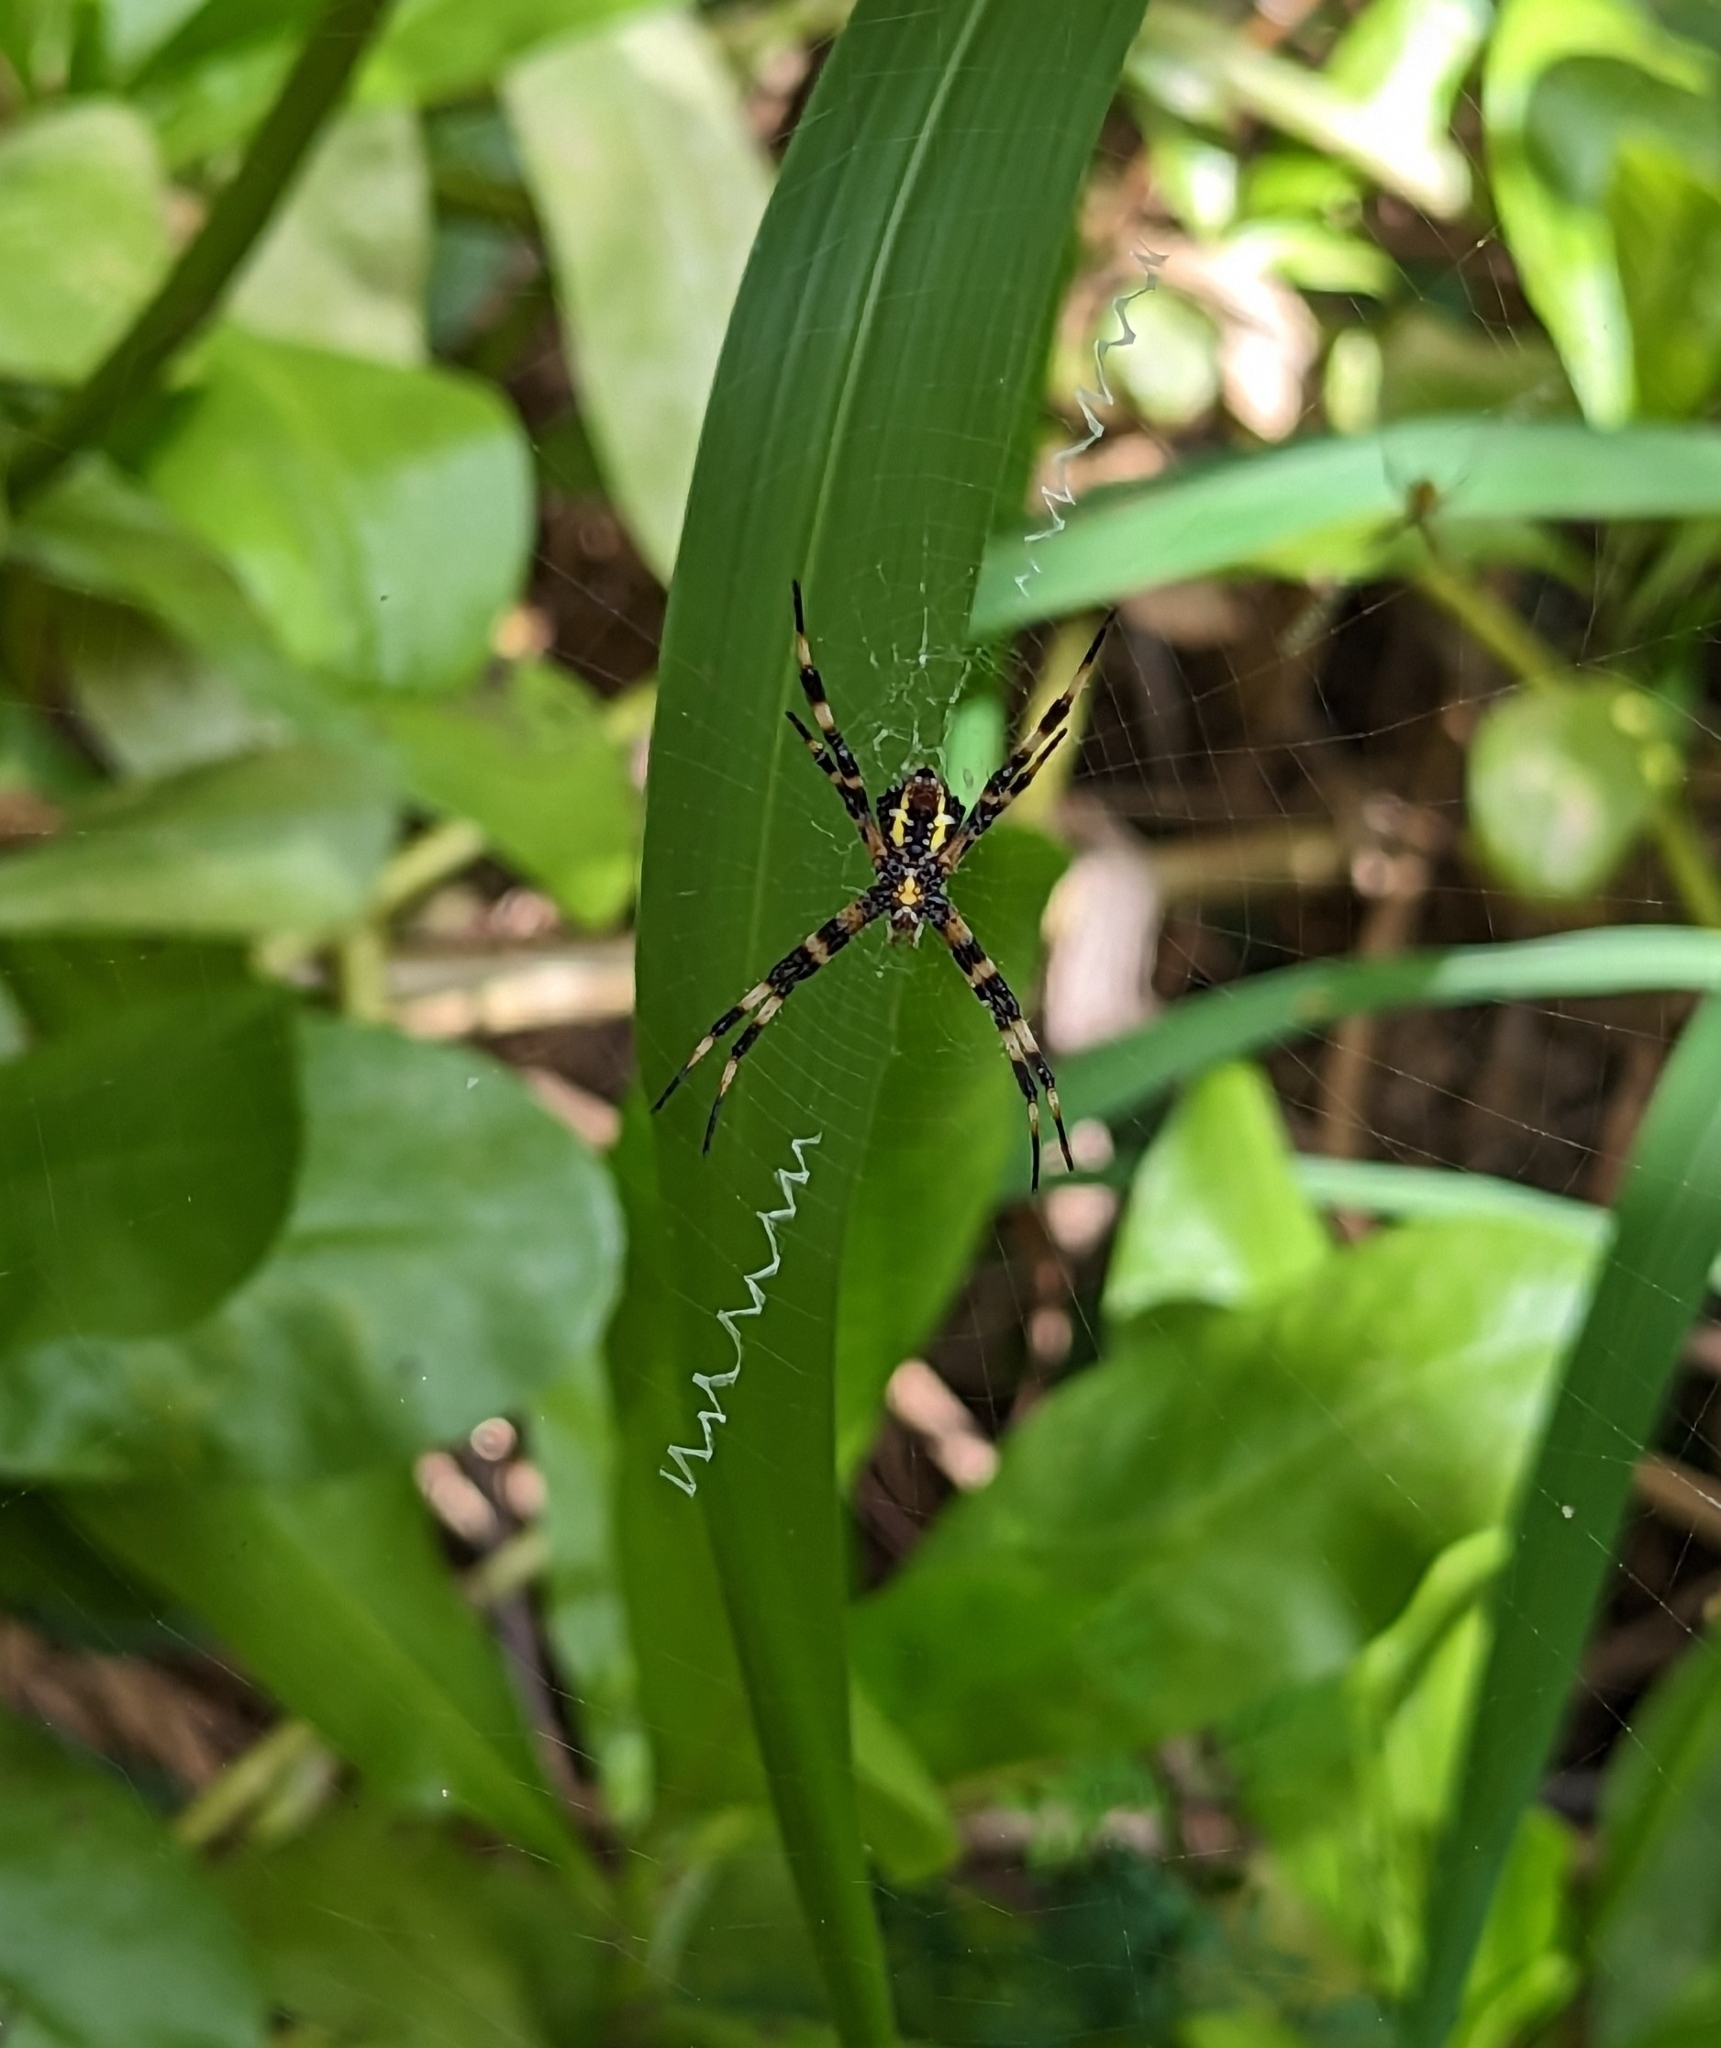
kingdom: Animalia
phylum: Arthropoda
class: Arachnida
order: Araneae
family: Araneidae
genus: Argiope
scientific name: Argiope appensa
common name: Garden spider
